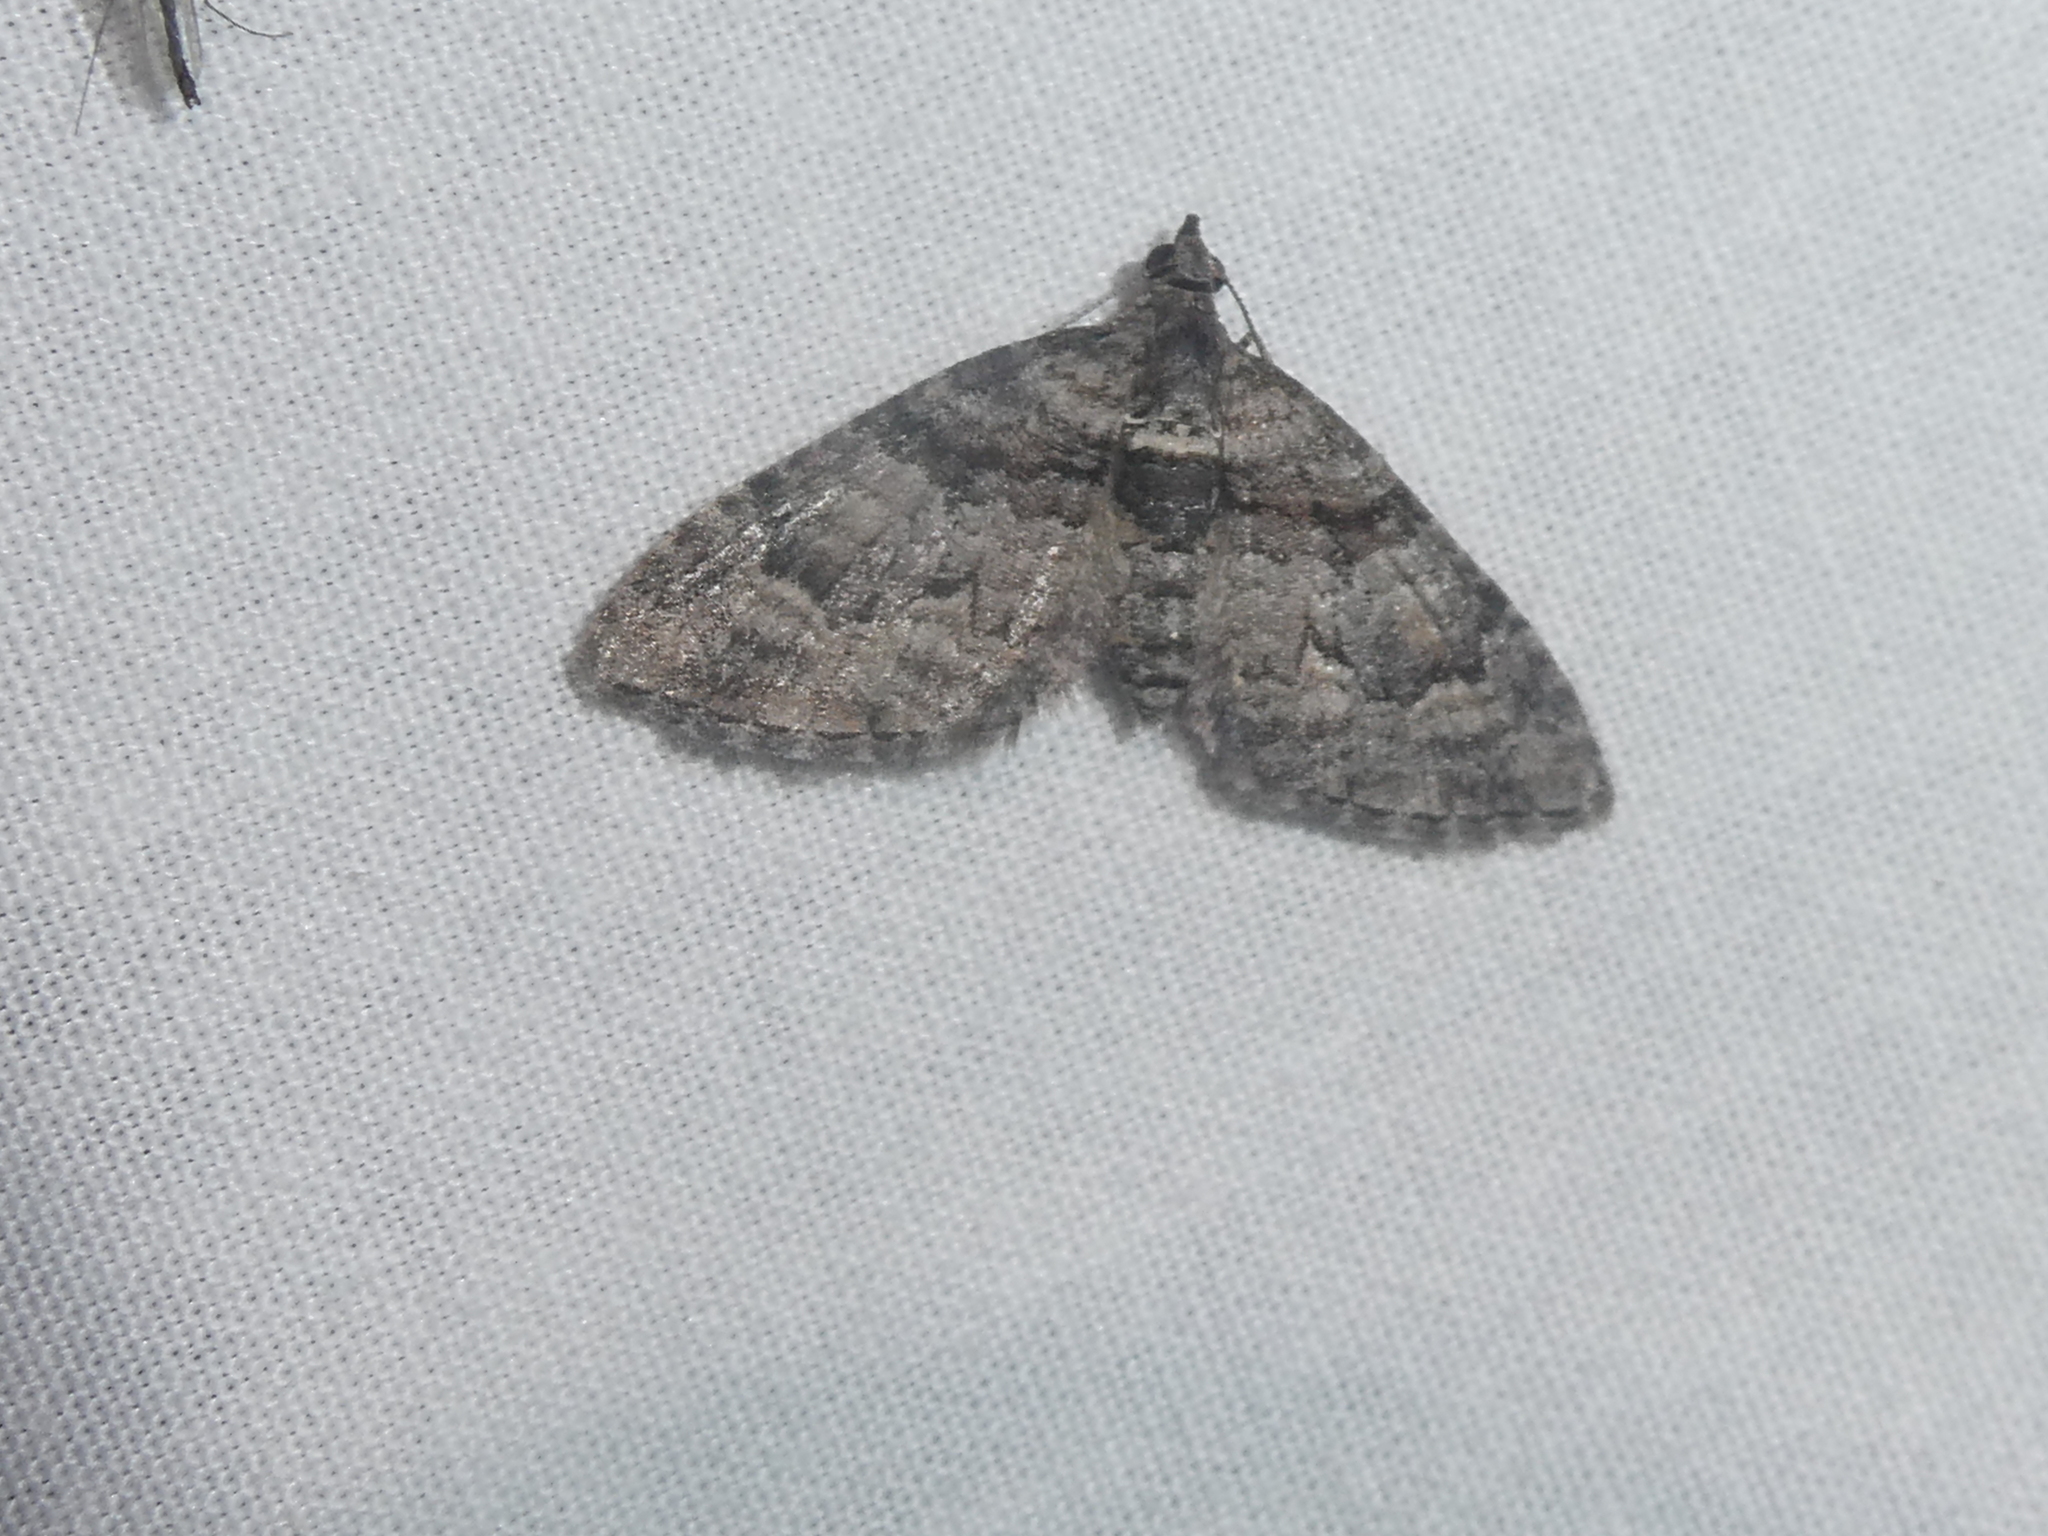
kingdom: Animalia
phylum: Arthropoda
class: Insecta
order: Lepidoptera
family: Geometridae
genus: Phrissogonus
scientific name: Phrissogonus laticostata
